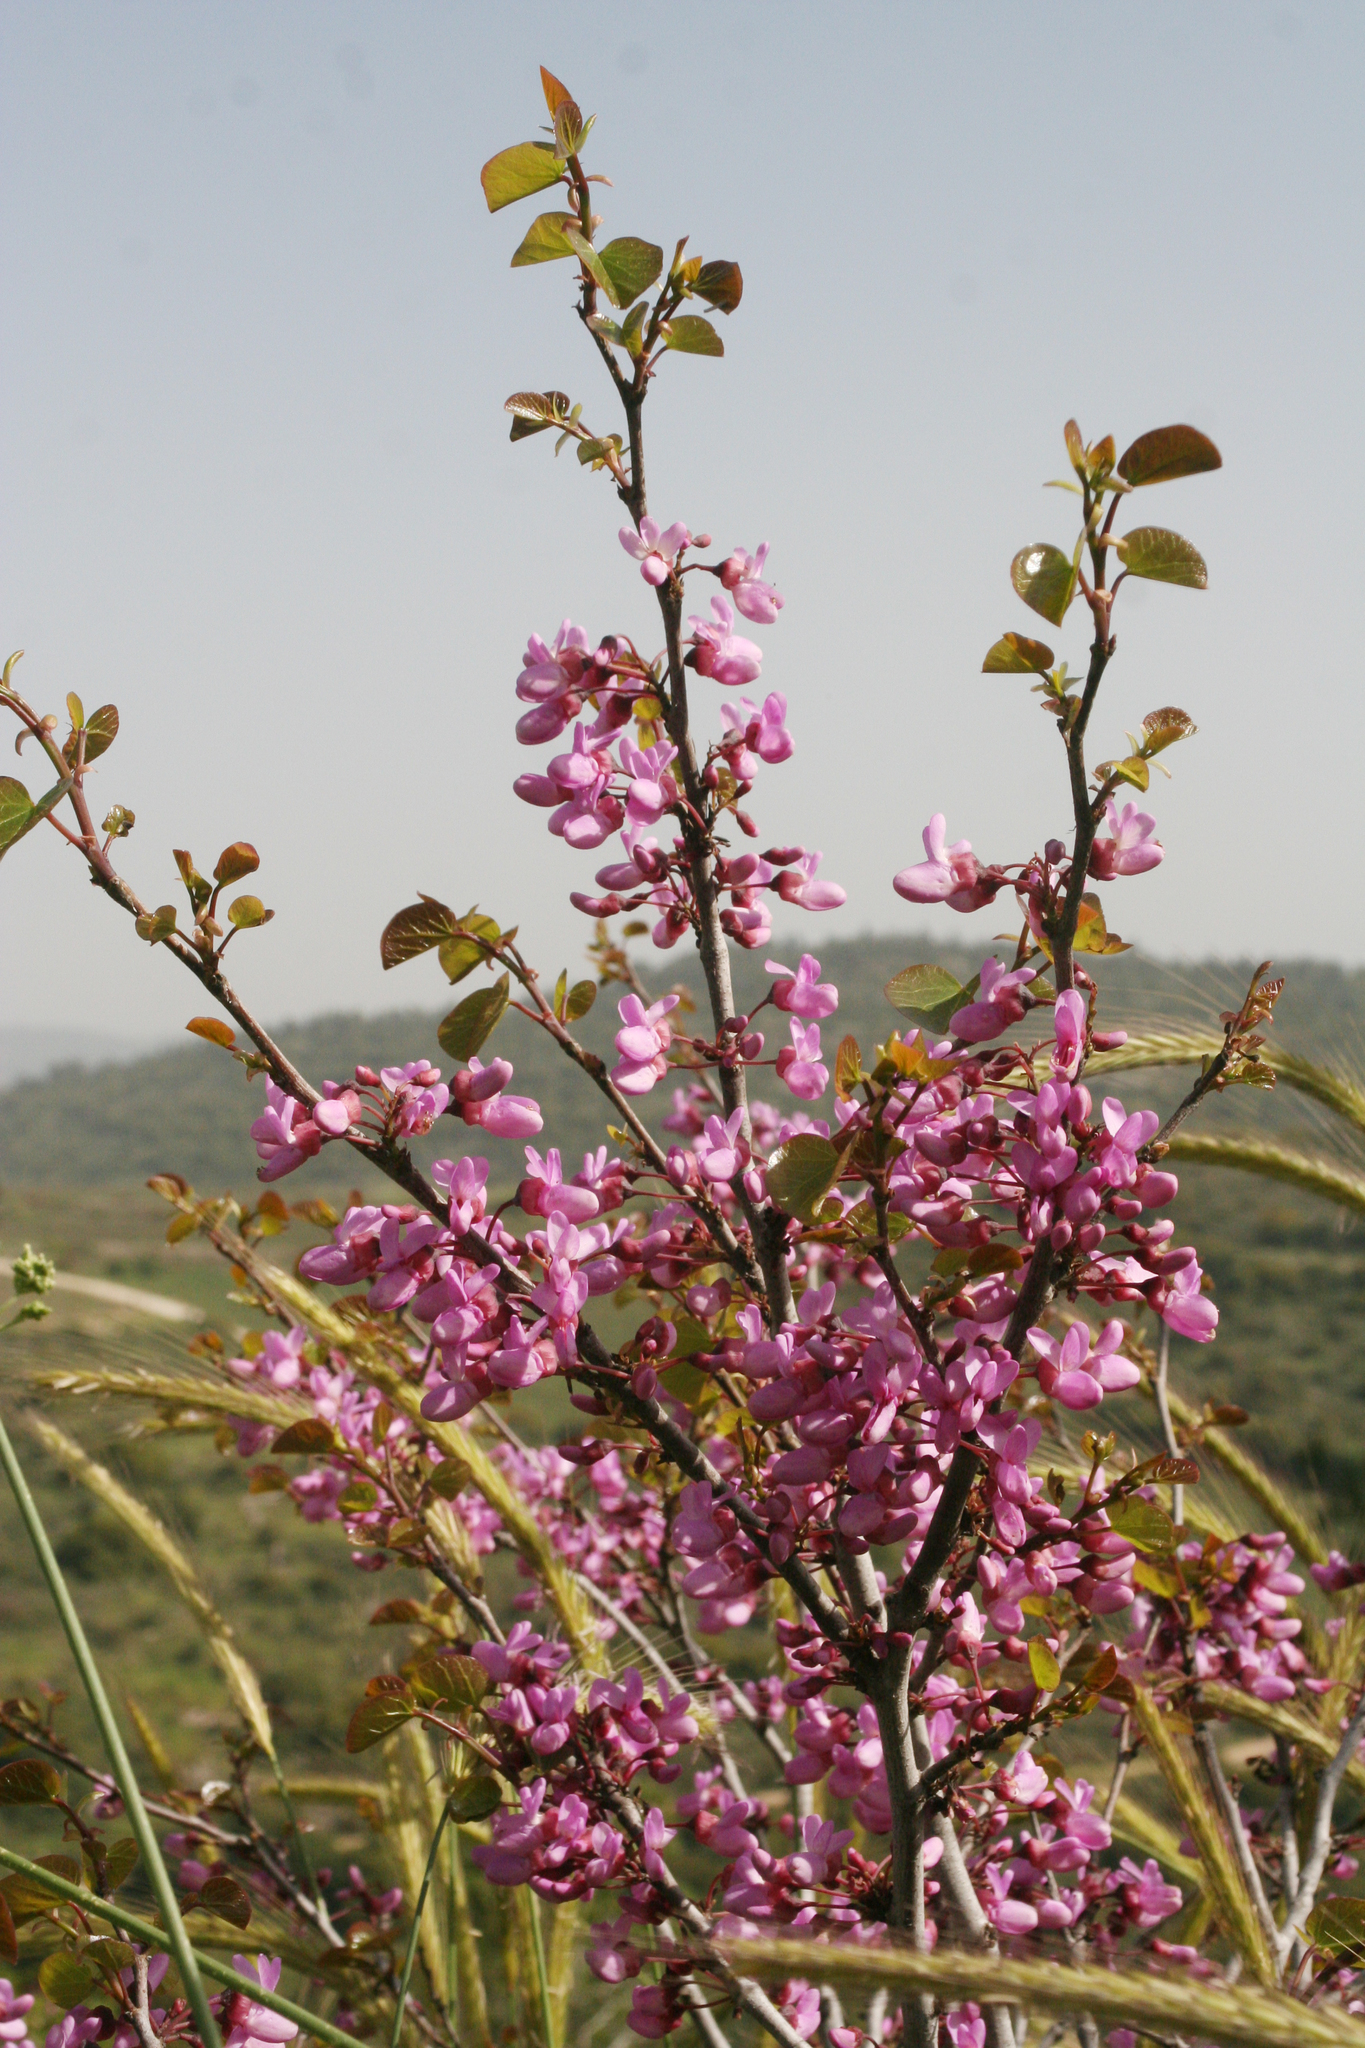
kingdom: Plantae
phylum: Tracheophyta
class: Magnoliopsida
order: Fabales
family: Fabaceae
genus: Cercis
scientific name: Cercis siliquastrum
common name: Judas tree
